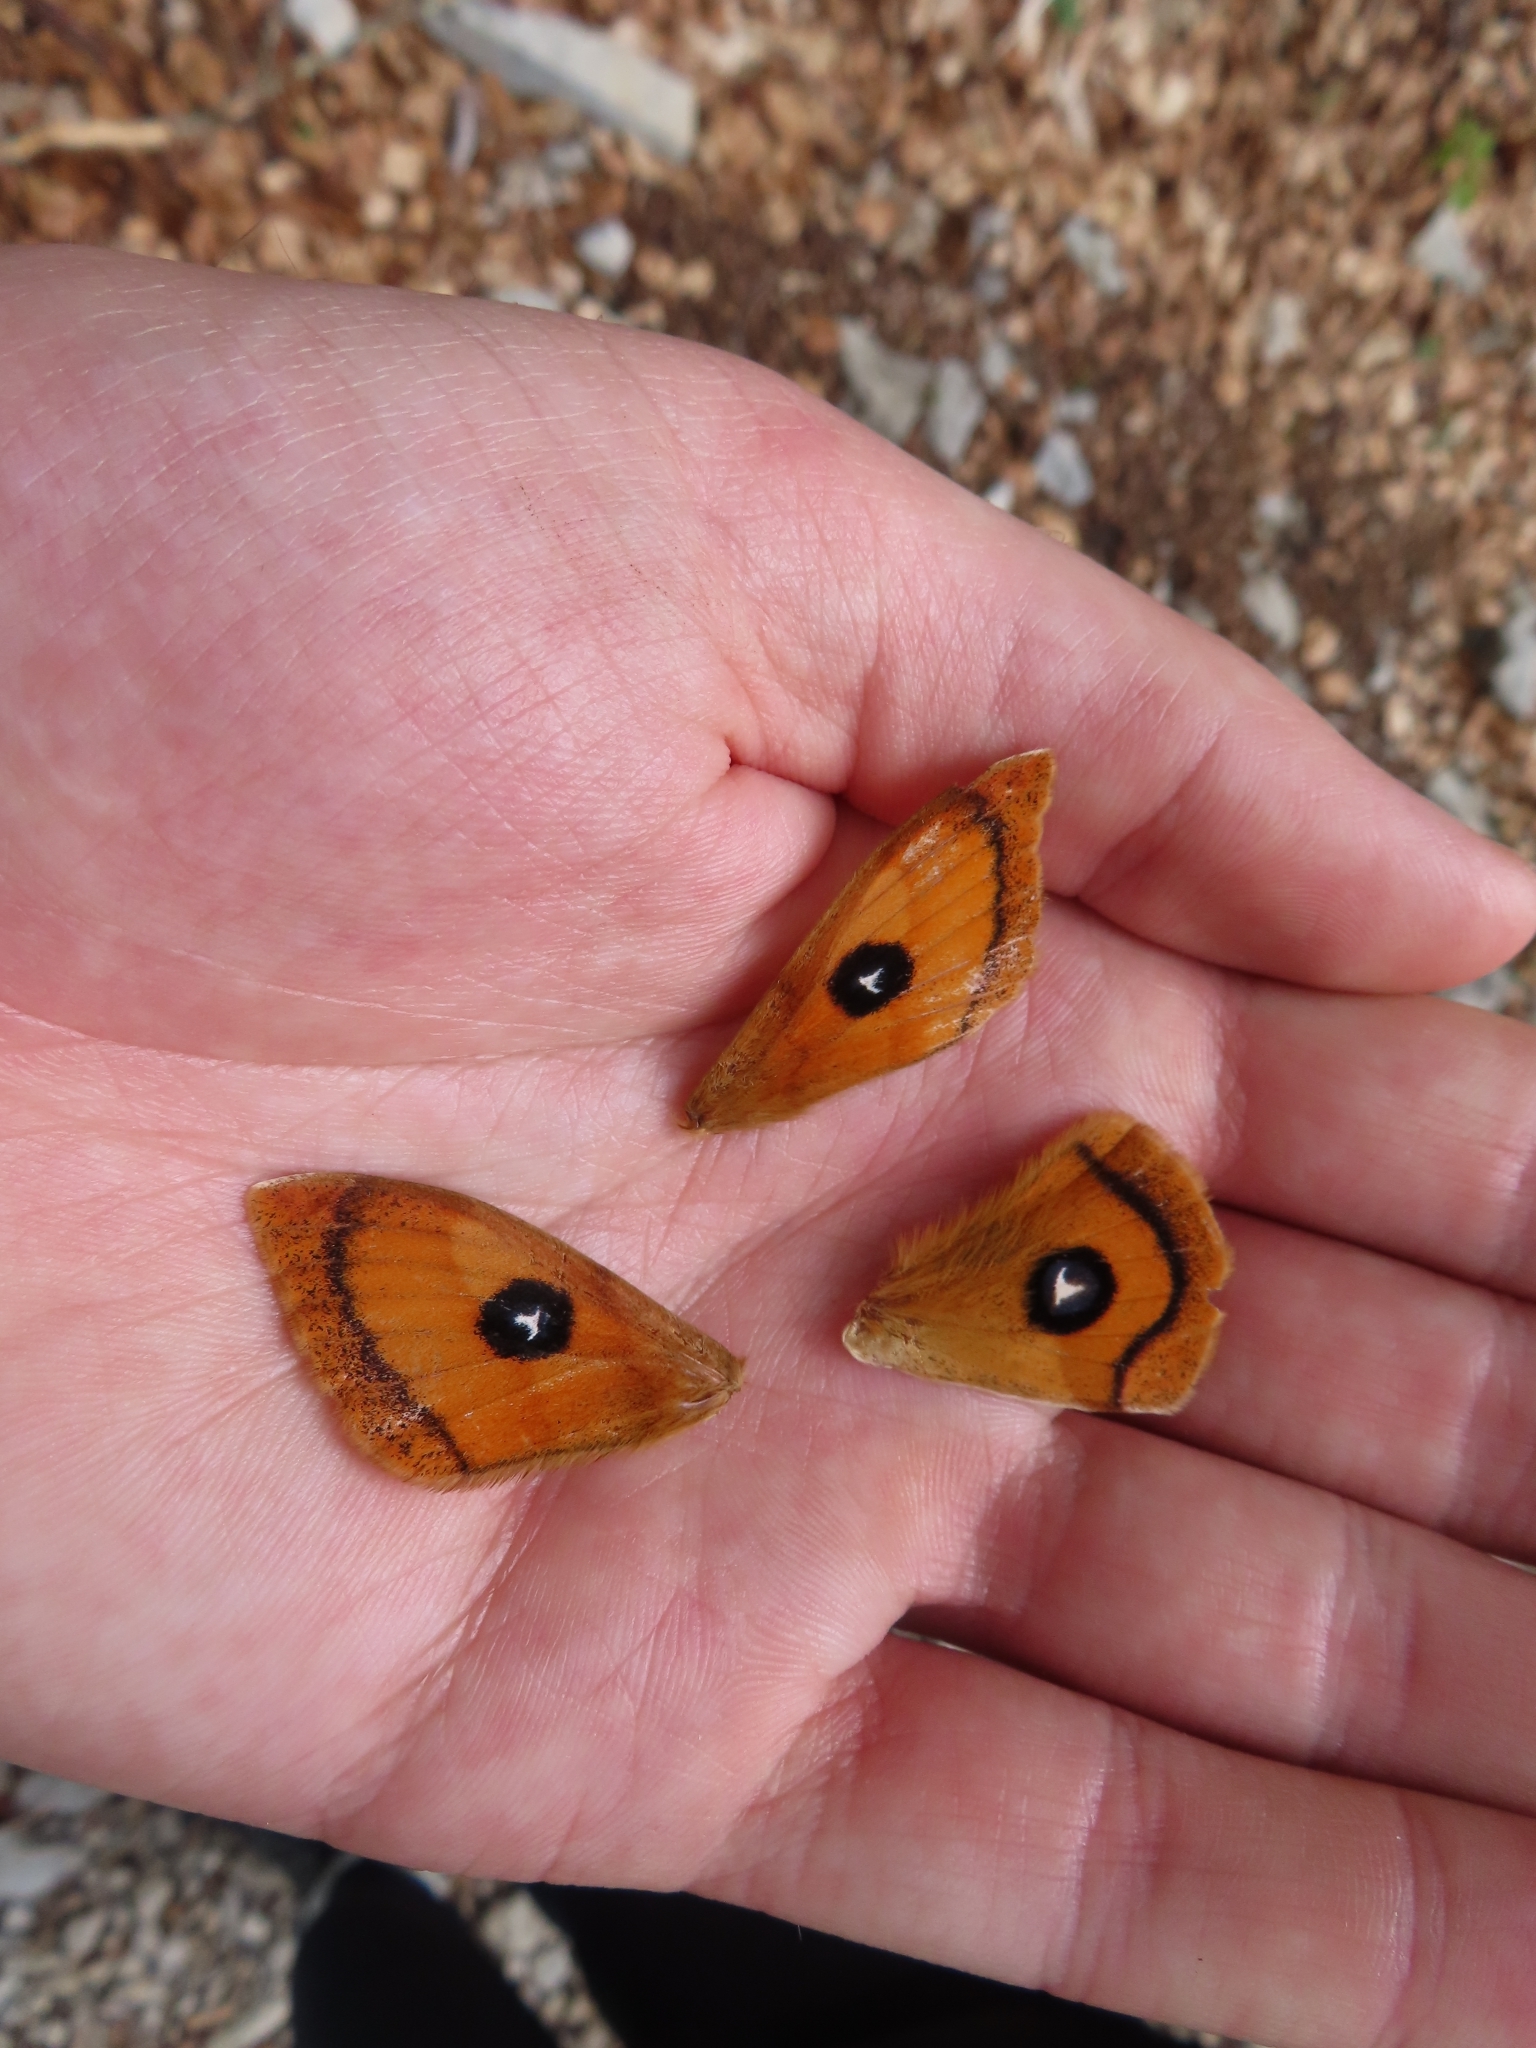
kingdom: Animalia
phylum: Arthropoda
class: Insecta
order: Lepidoptera
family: Saturniidae
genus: Aglia
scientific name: Aglia tau
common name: Tau emperor
